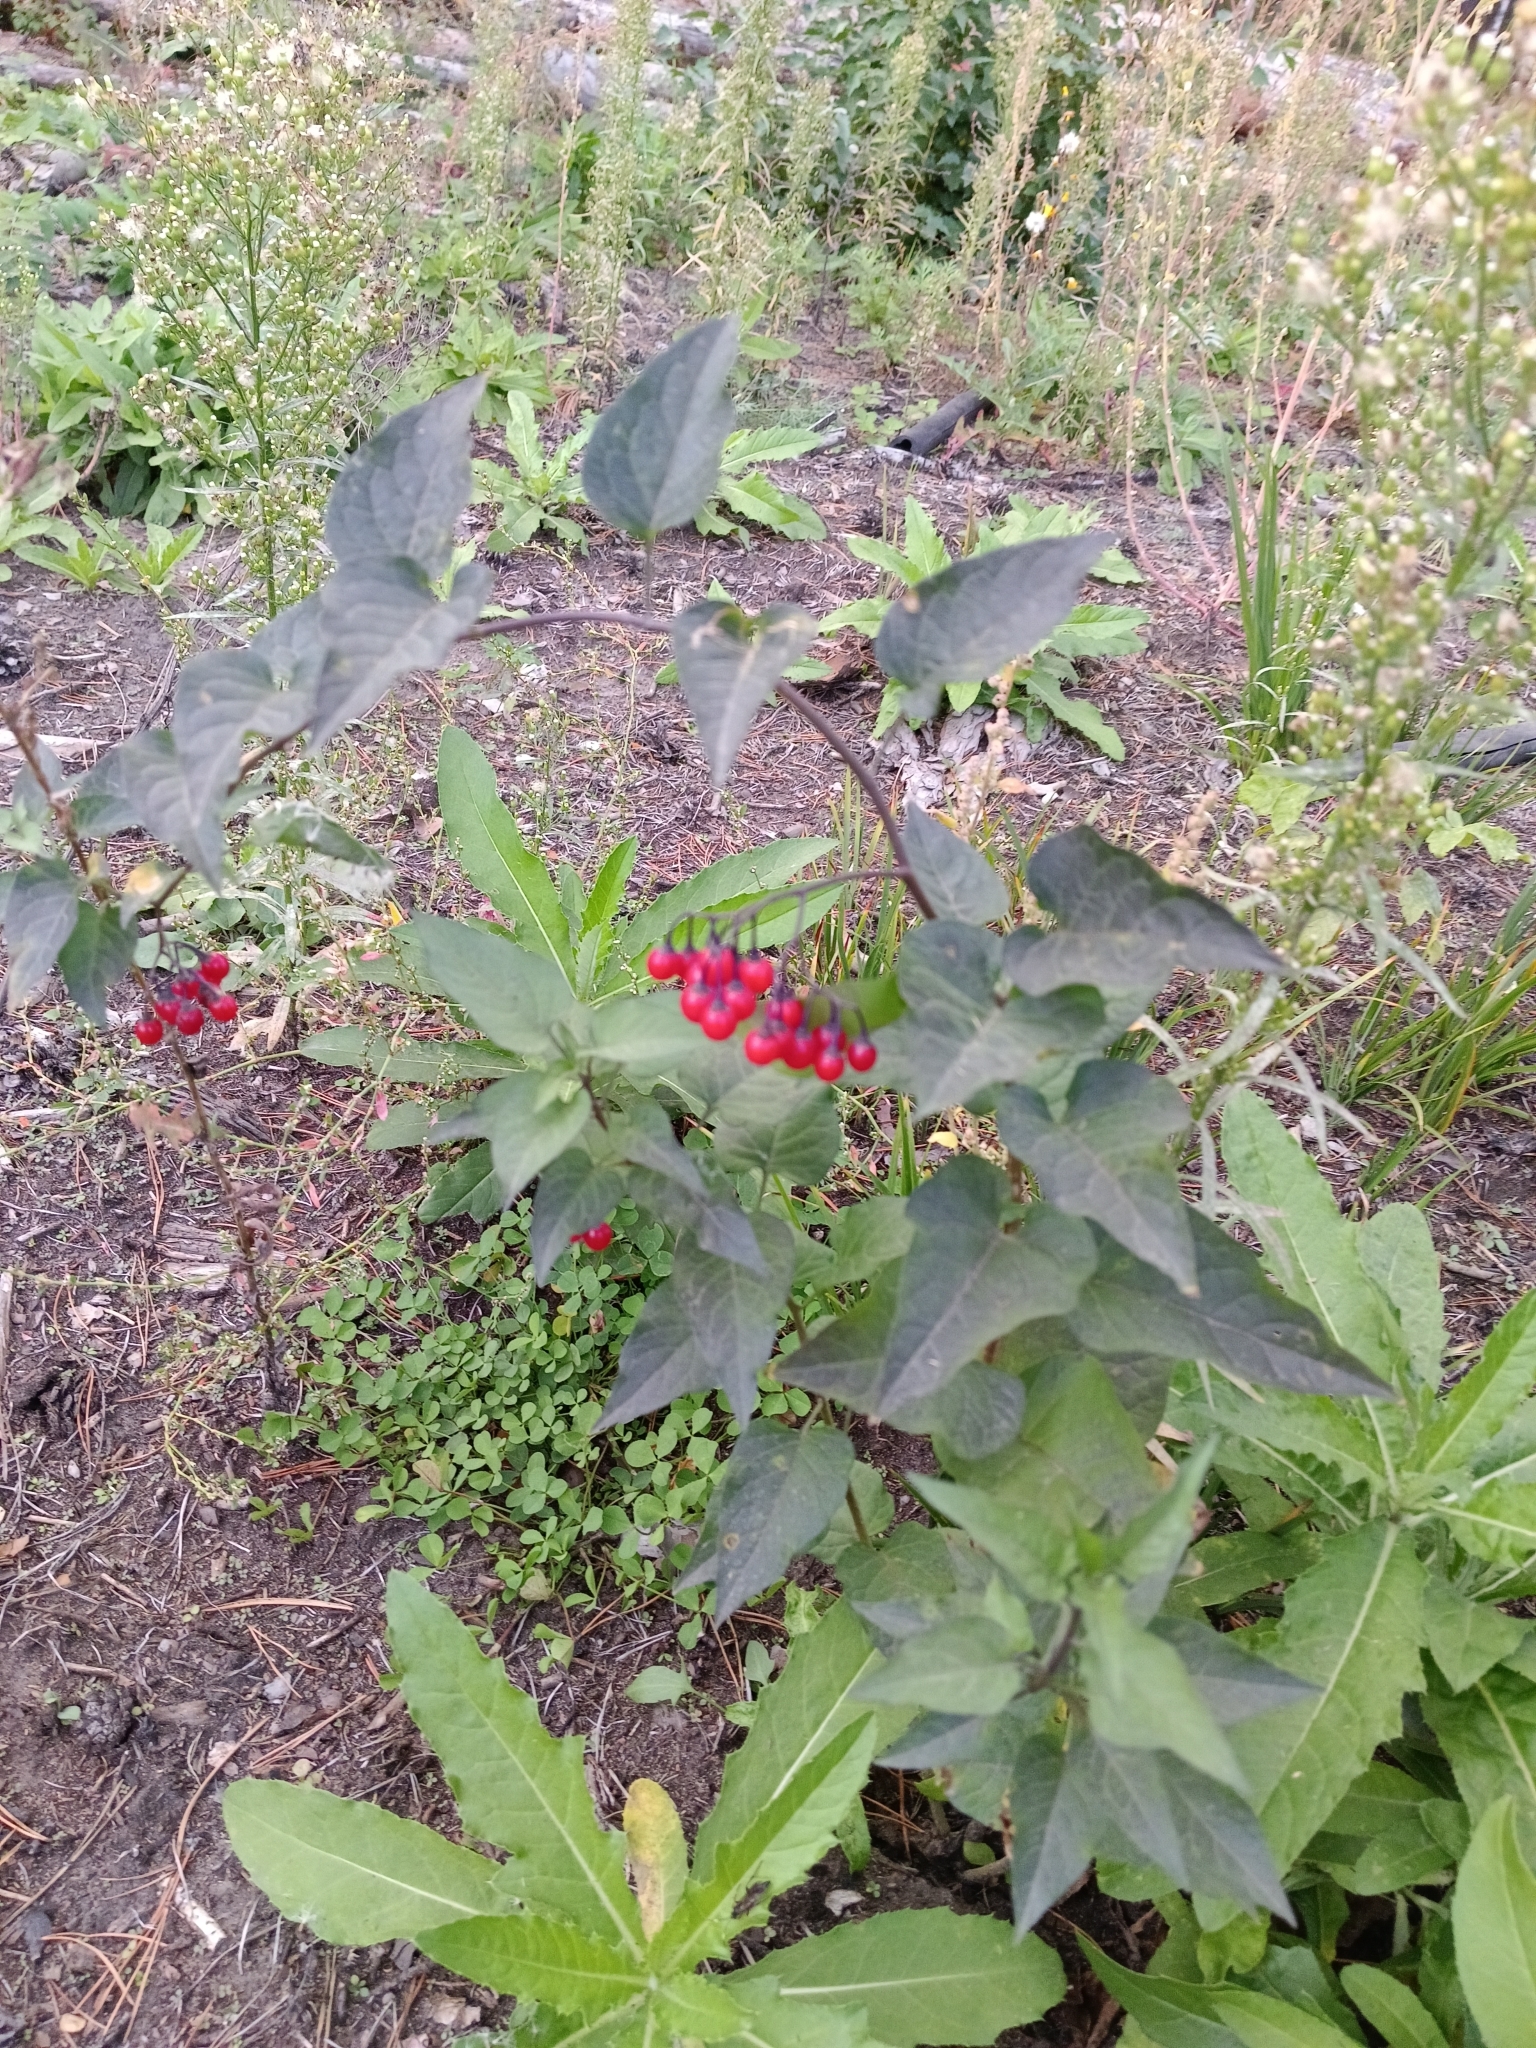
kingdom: Plantae
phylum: Tracheophyta
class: Magnoliopsida
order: Solanales
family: Solanaceae
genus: Solanum
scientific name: Solanum dulcamara
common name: Climbing nightshade
